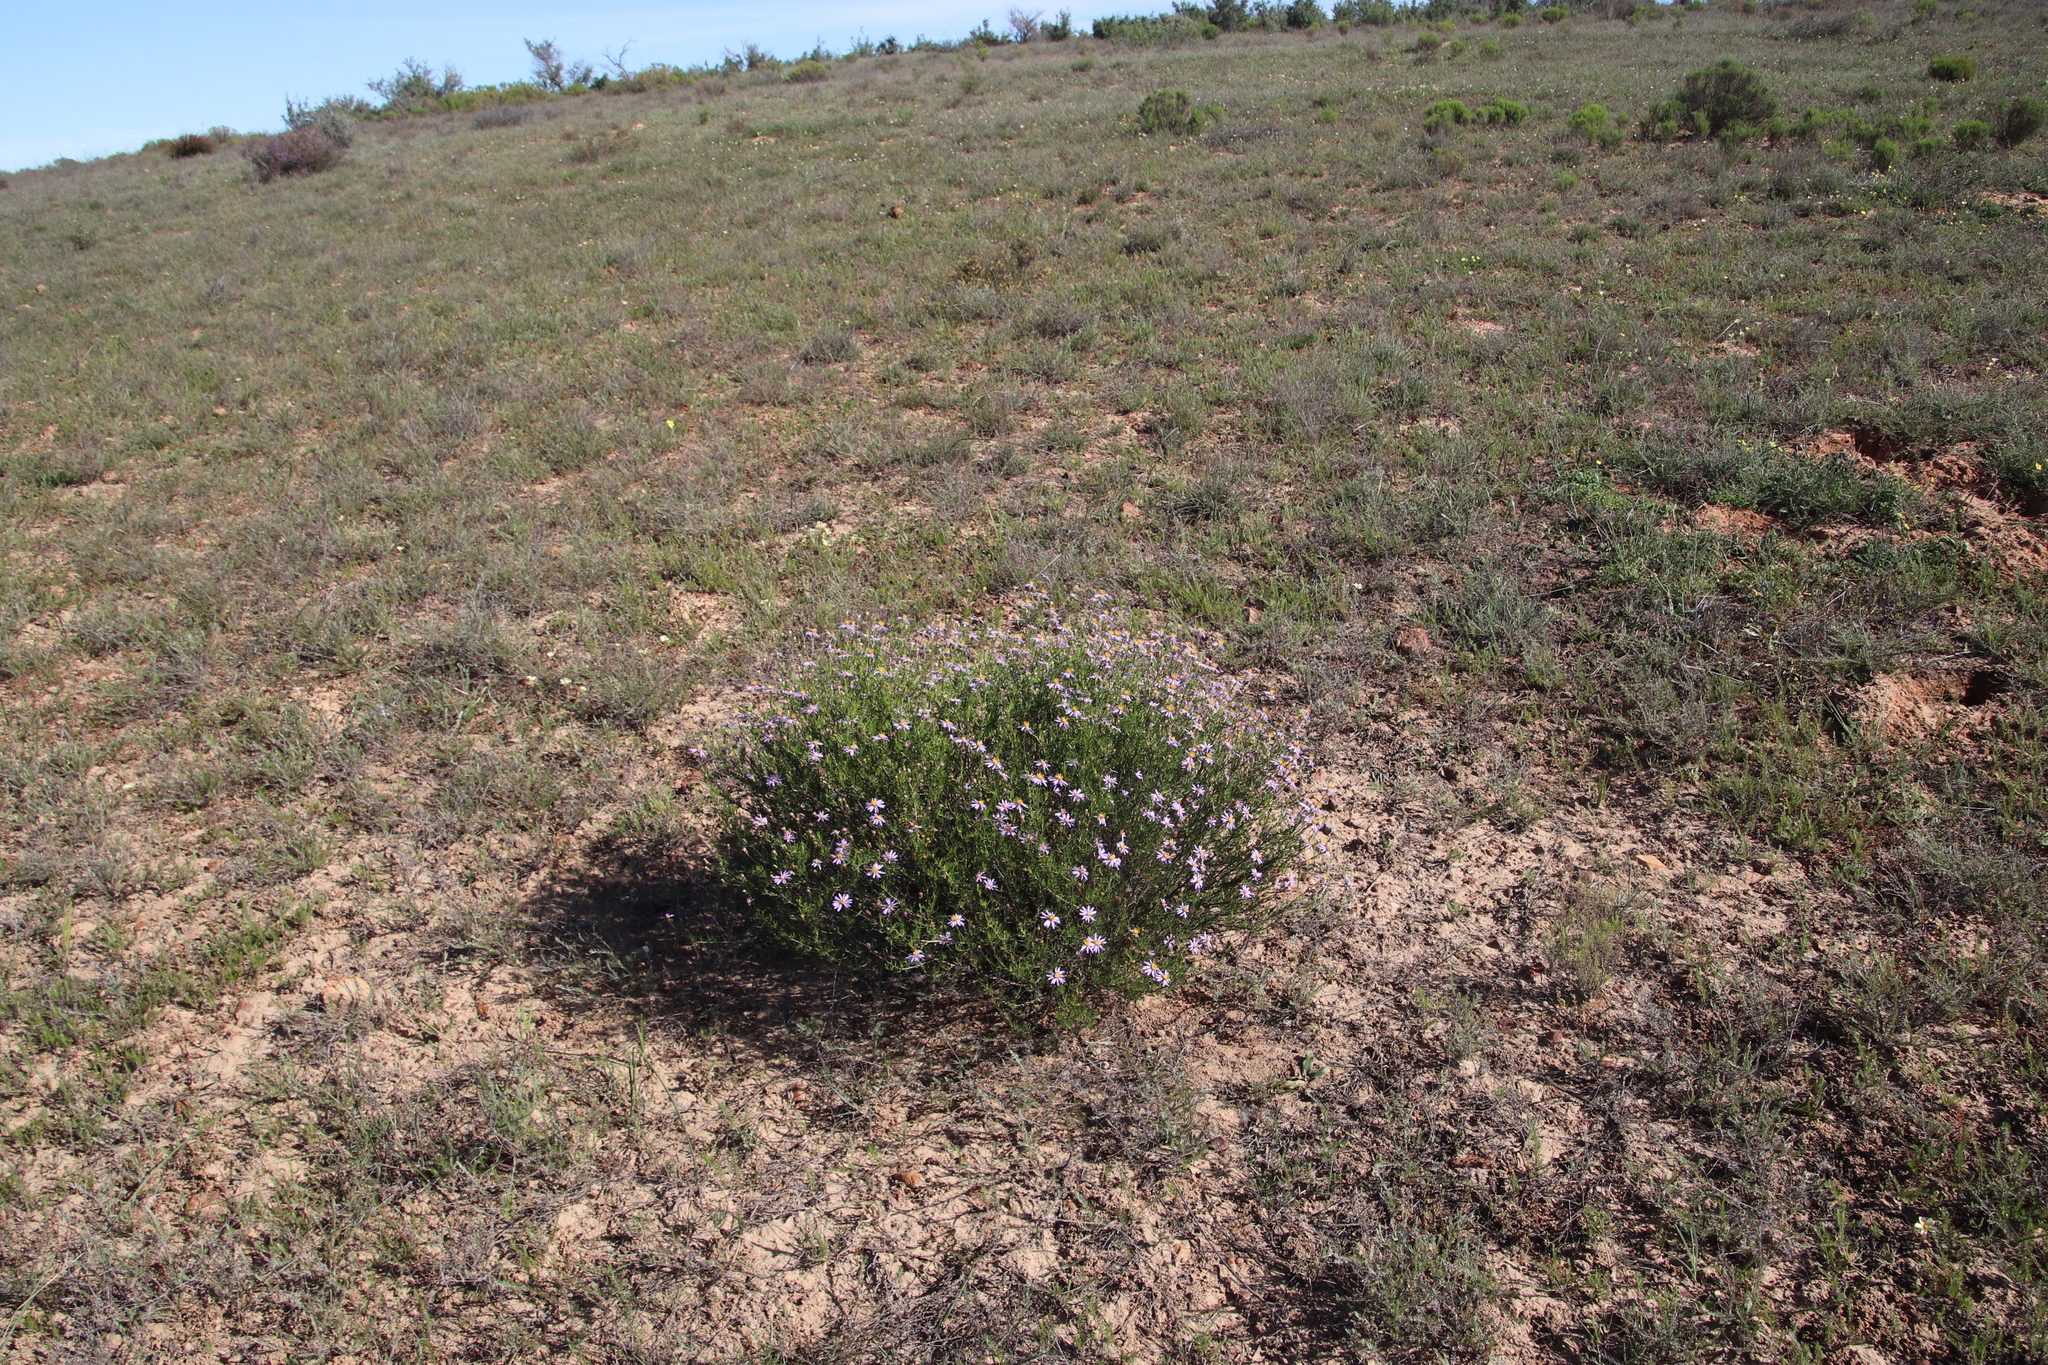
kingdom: Plantae
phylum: Tracheophyta
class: Magnoliopsida
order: Asterales
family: Asteraceae
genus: Felicia
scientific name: Felicia filifolia
